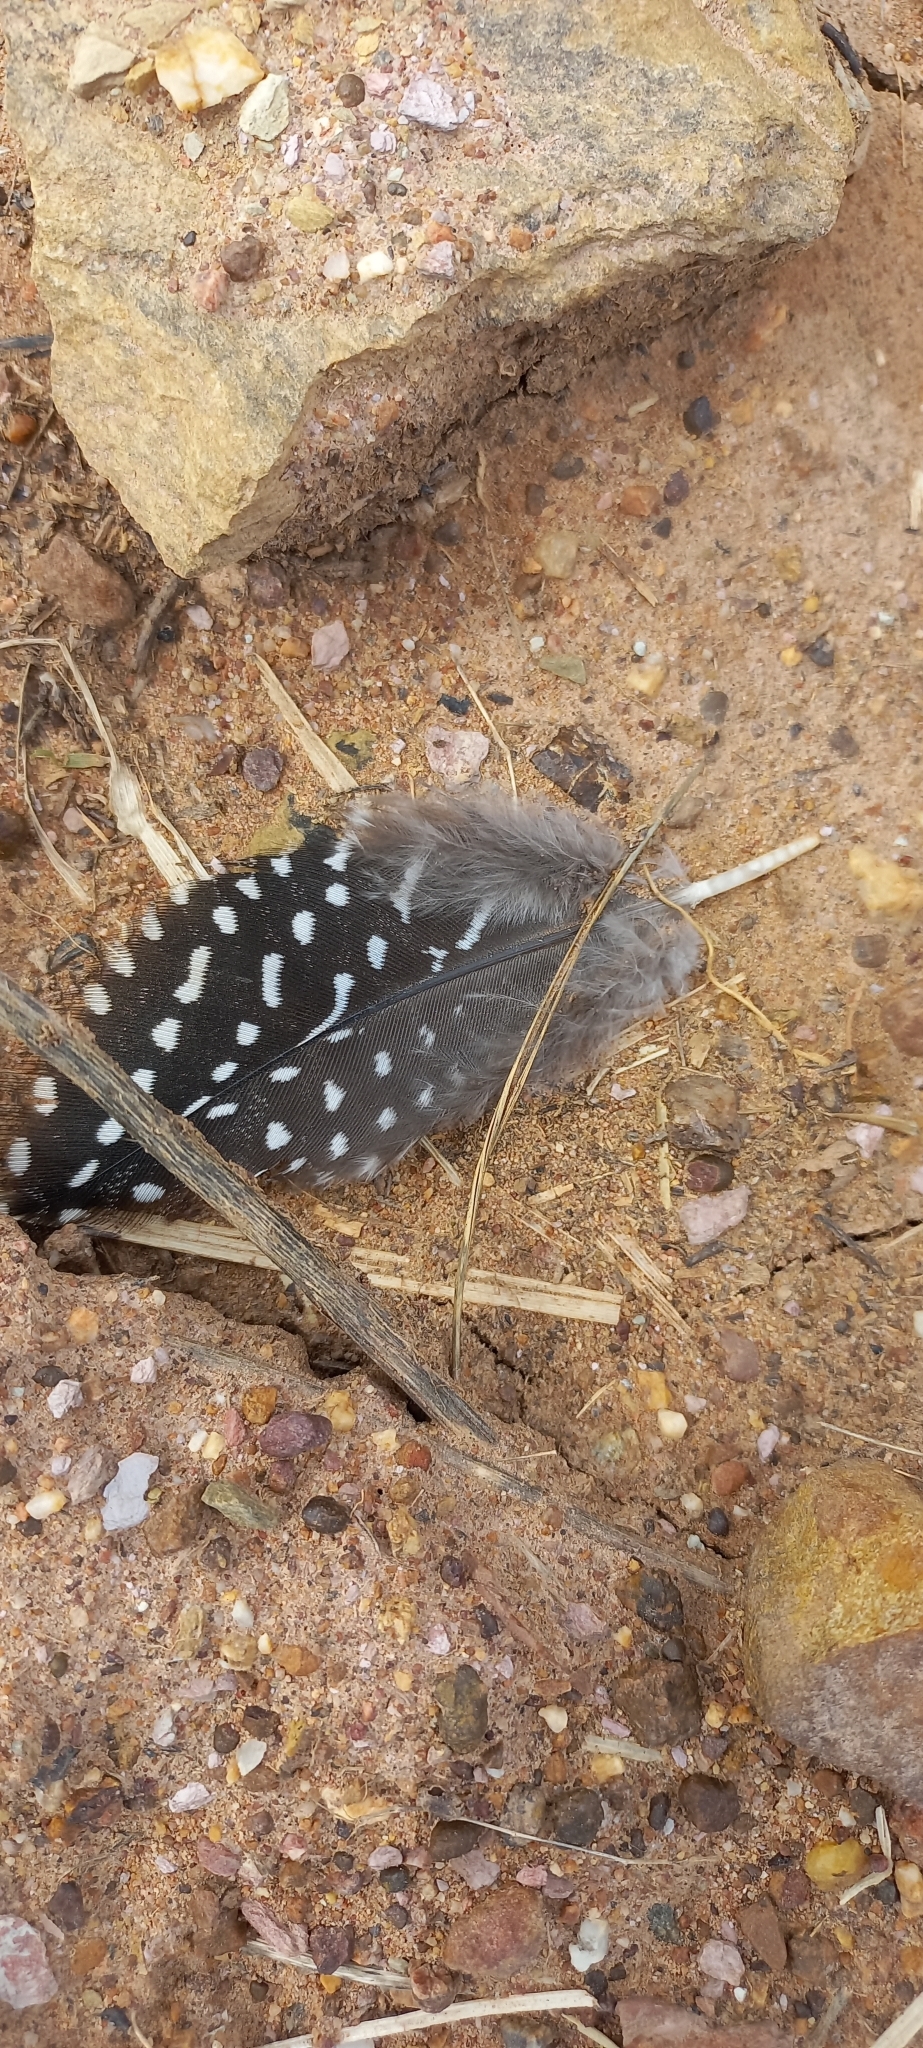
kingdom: Animalia
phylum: Chordata
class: Aves
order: Galliformes
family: Numididae
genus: Numida
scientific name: Numida meleagris
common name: Helmeted guineafowl
